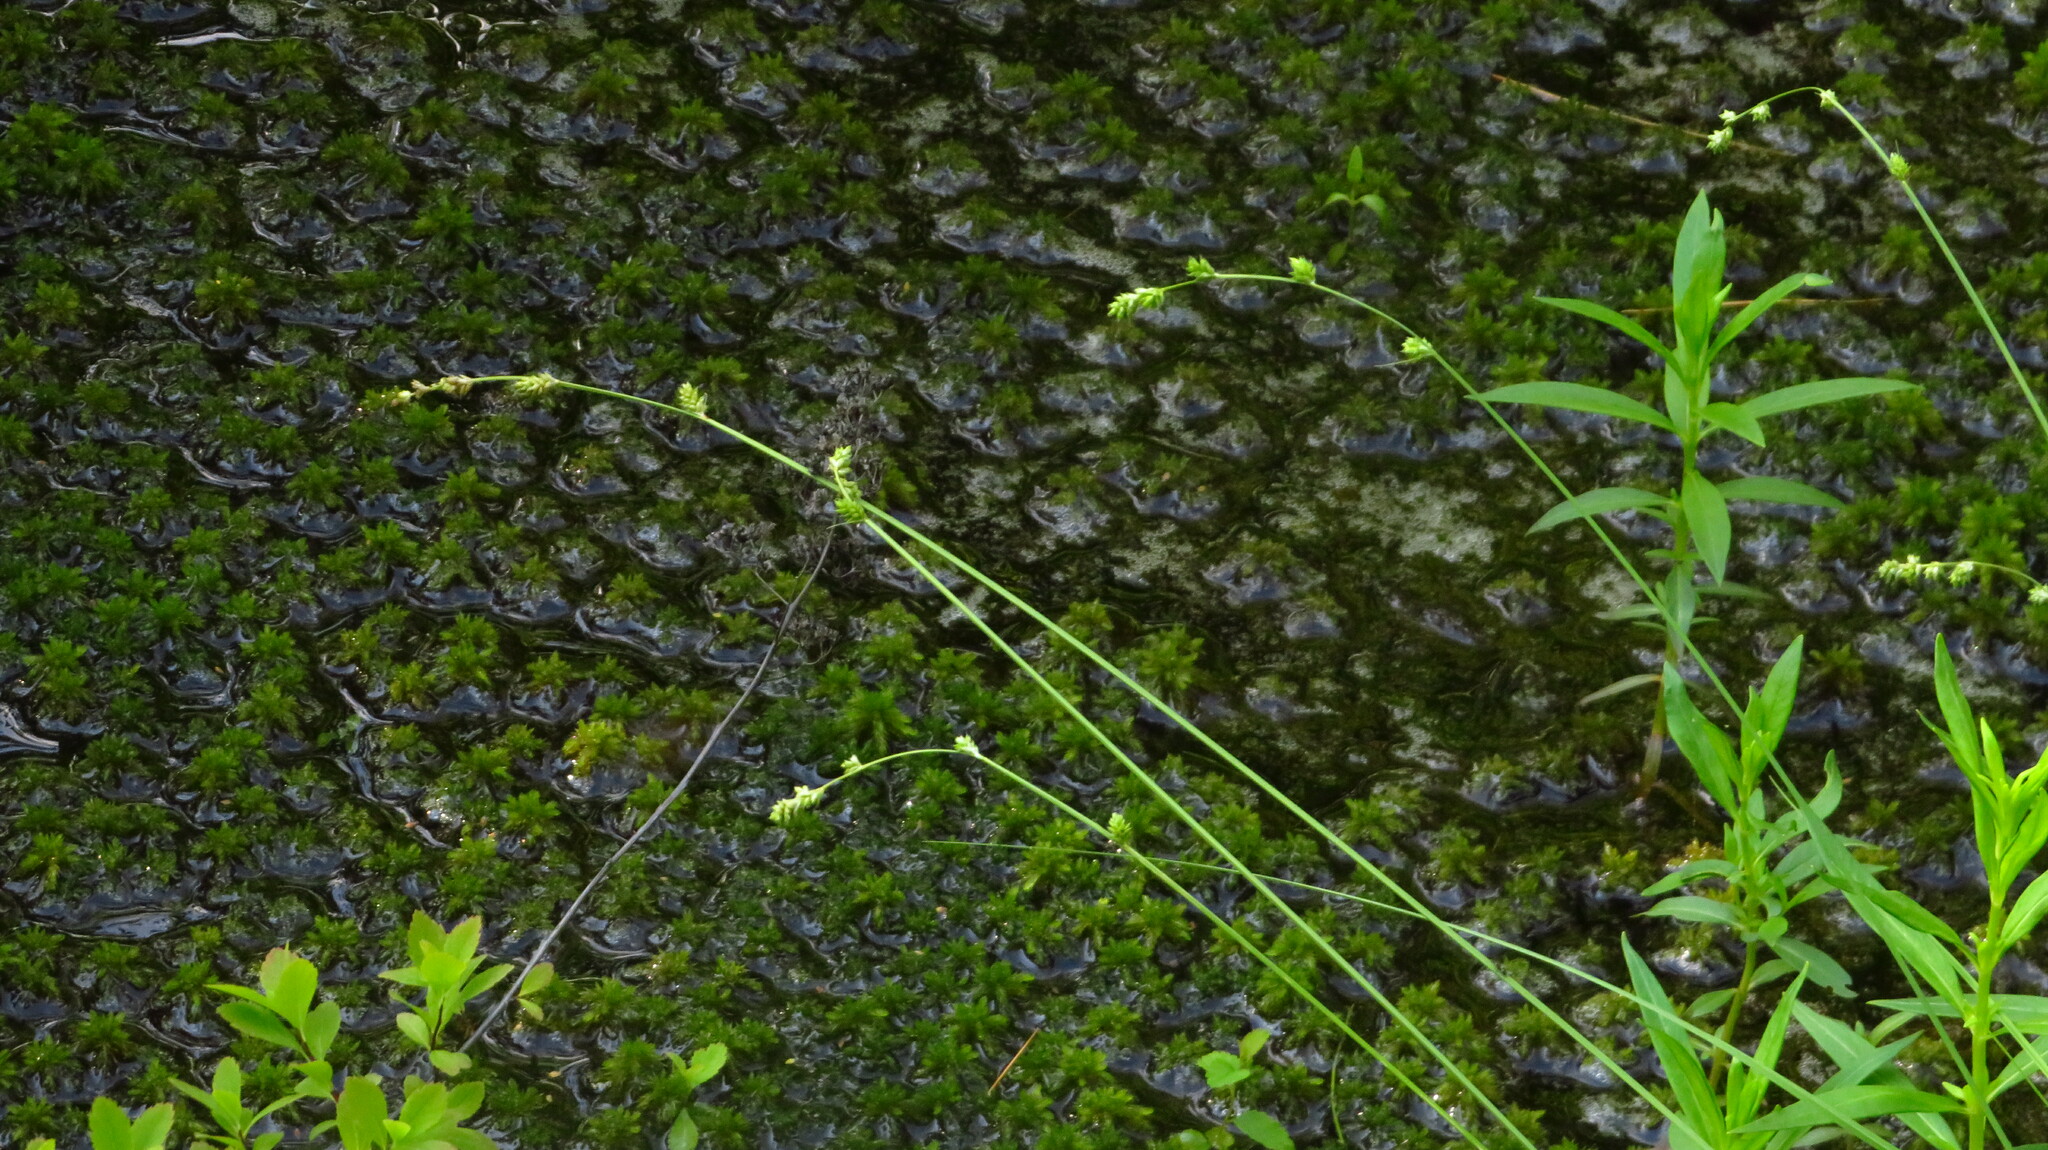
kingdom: Plantae
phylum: Tracheophyta
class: Liliopsida
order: Poales
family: Cyperaceae
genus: Carex
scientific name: Carex canescens
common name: White sedge
